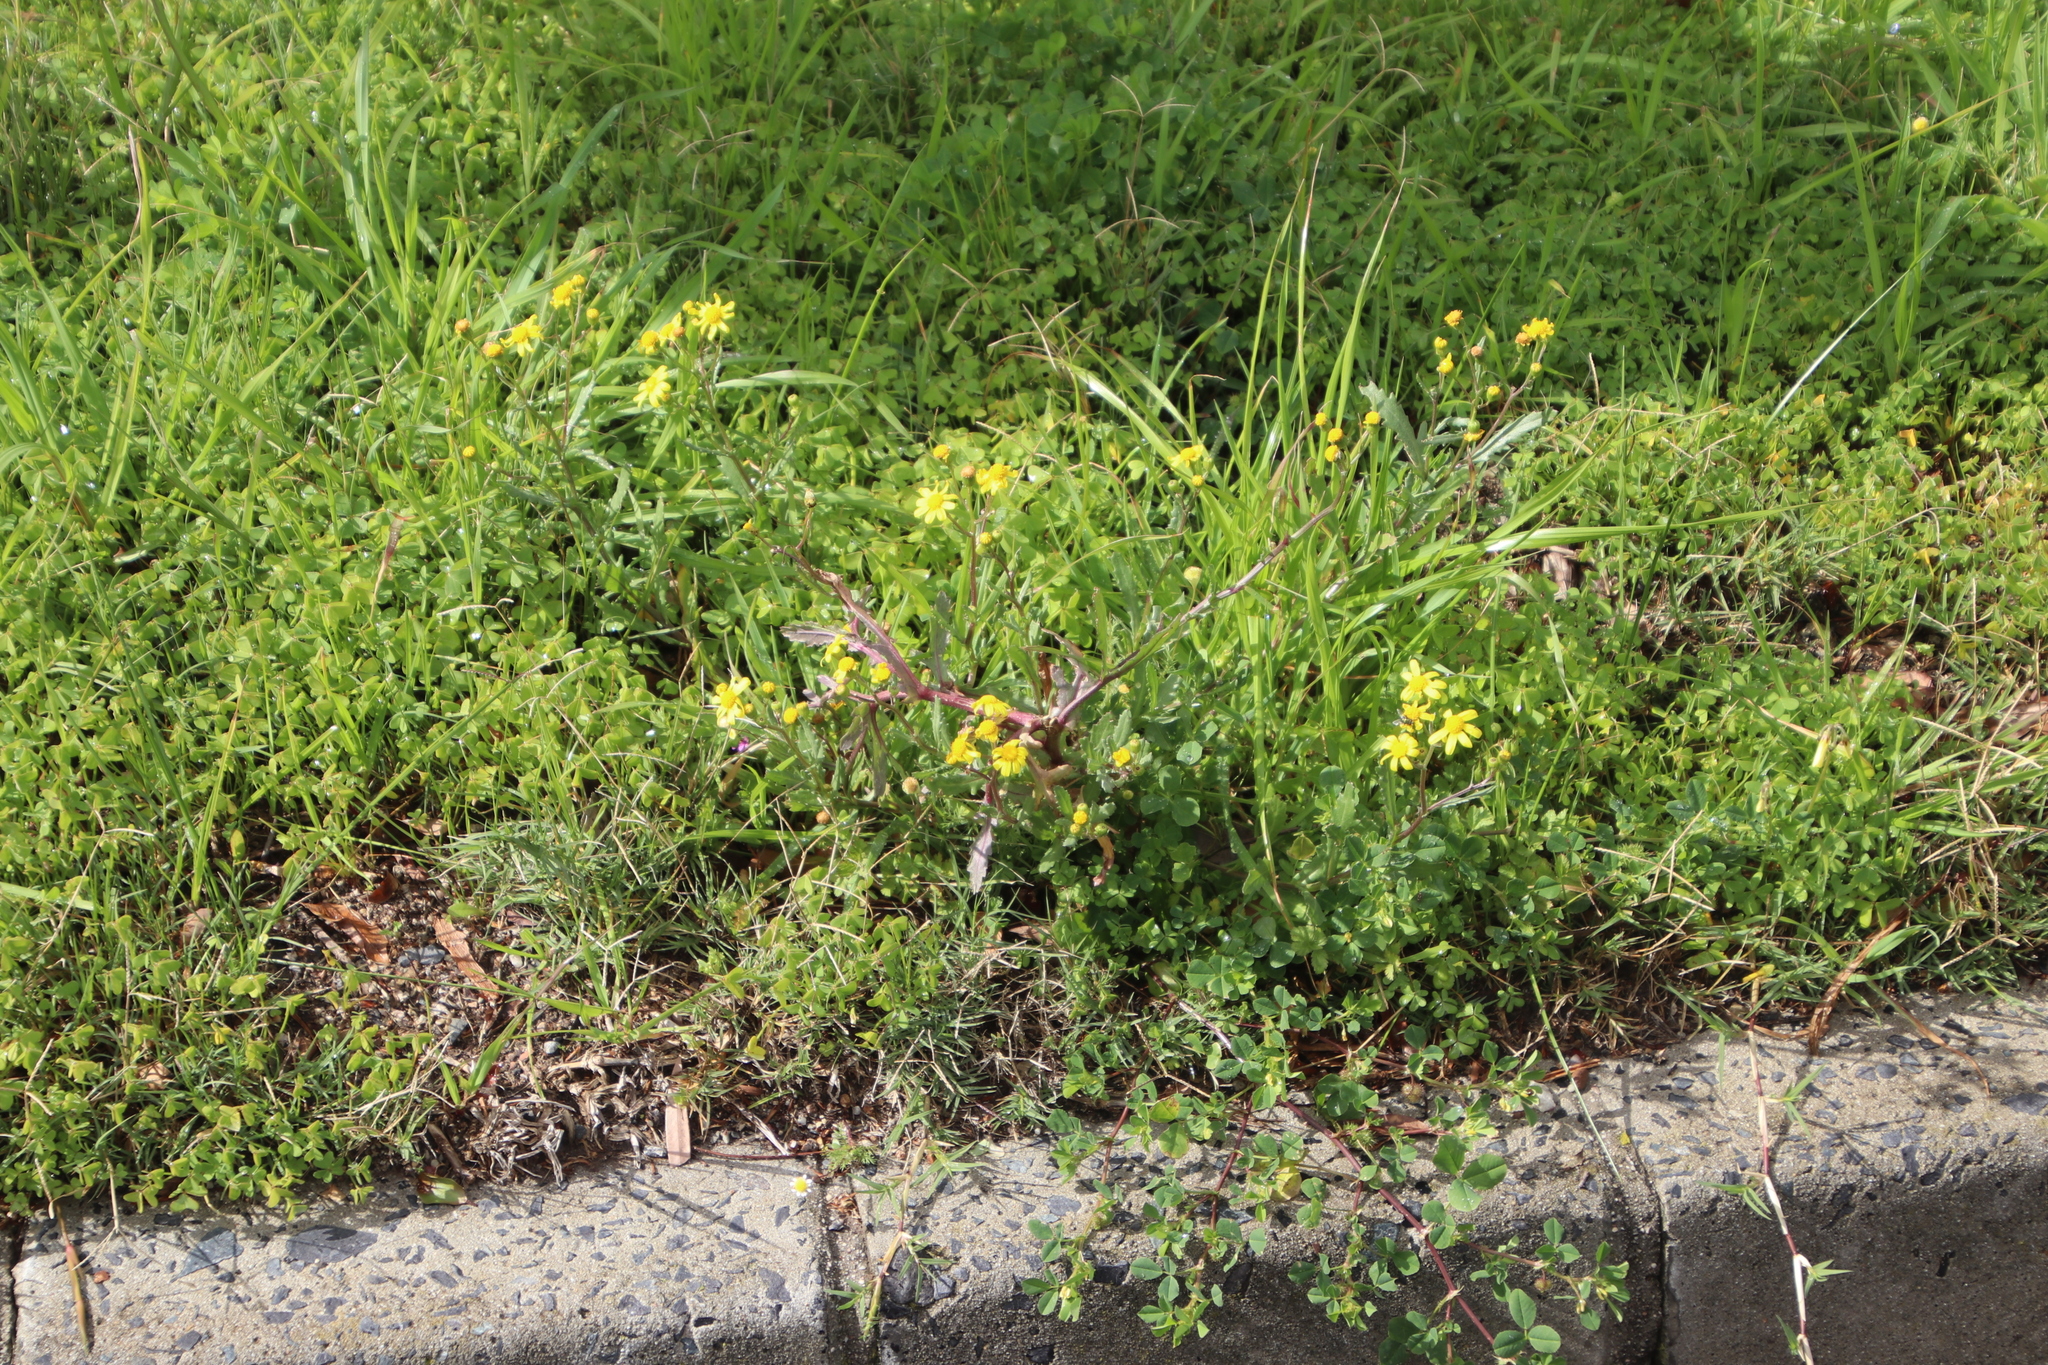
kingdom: Plantae
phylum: Tracheophyta
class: Magnoliopsida
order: Asterales
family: Asteraceae
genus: Senecio
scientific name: Senecio littoreus
